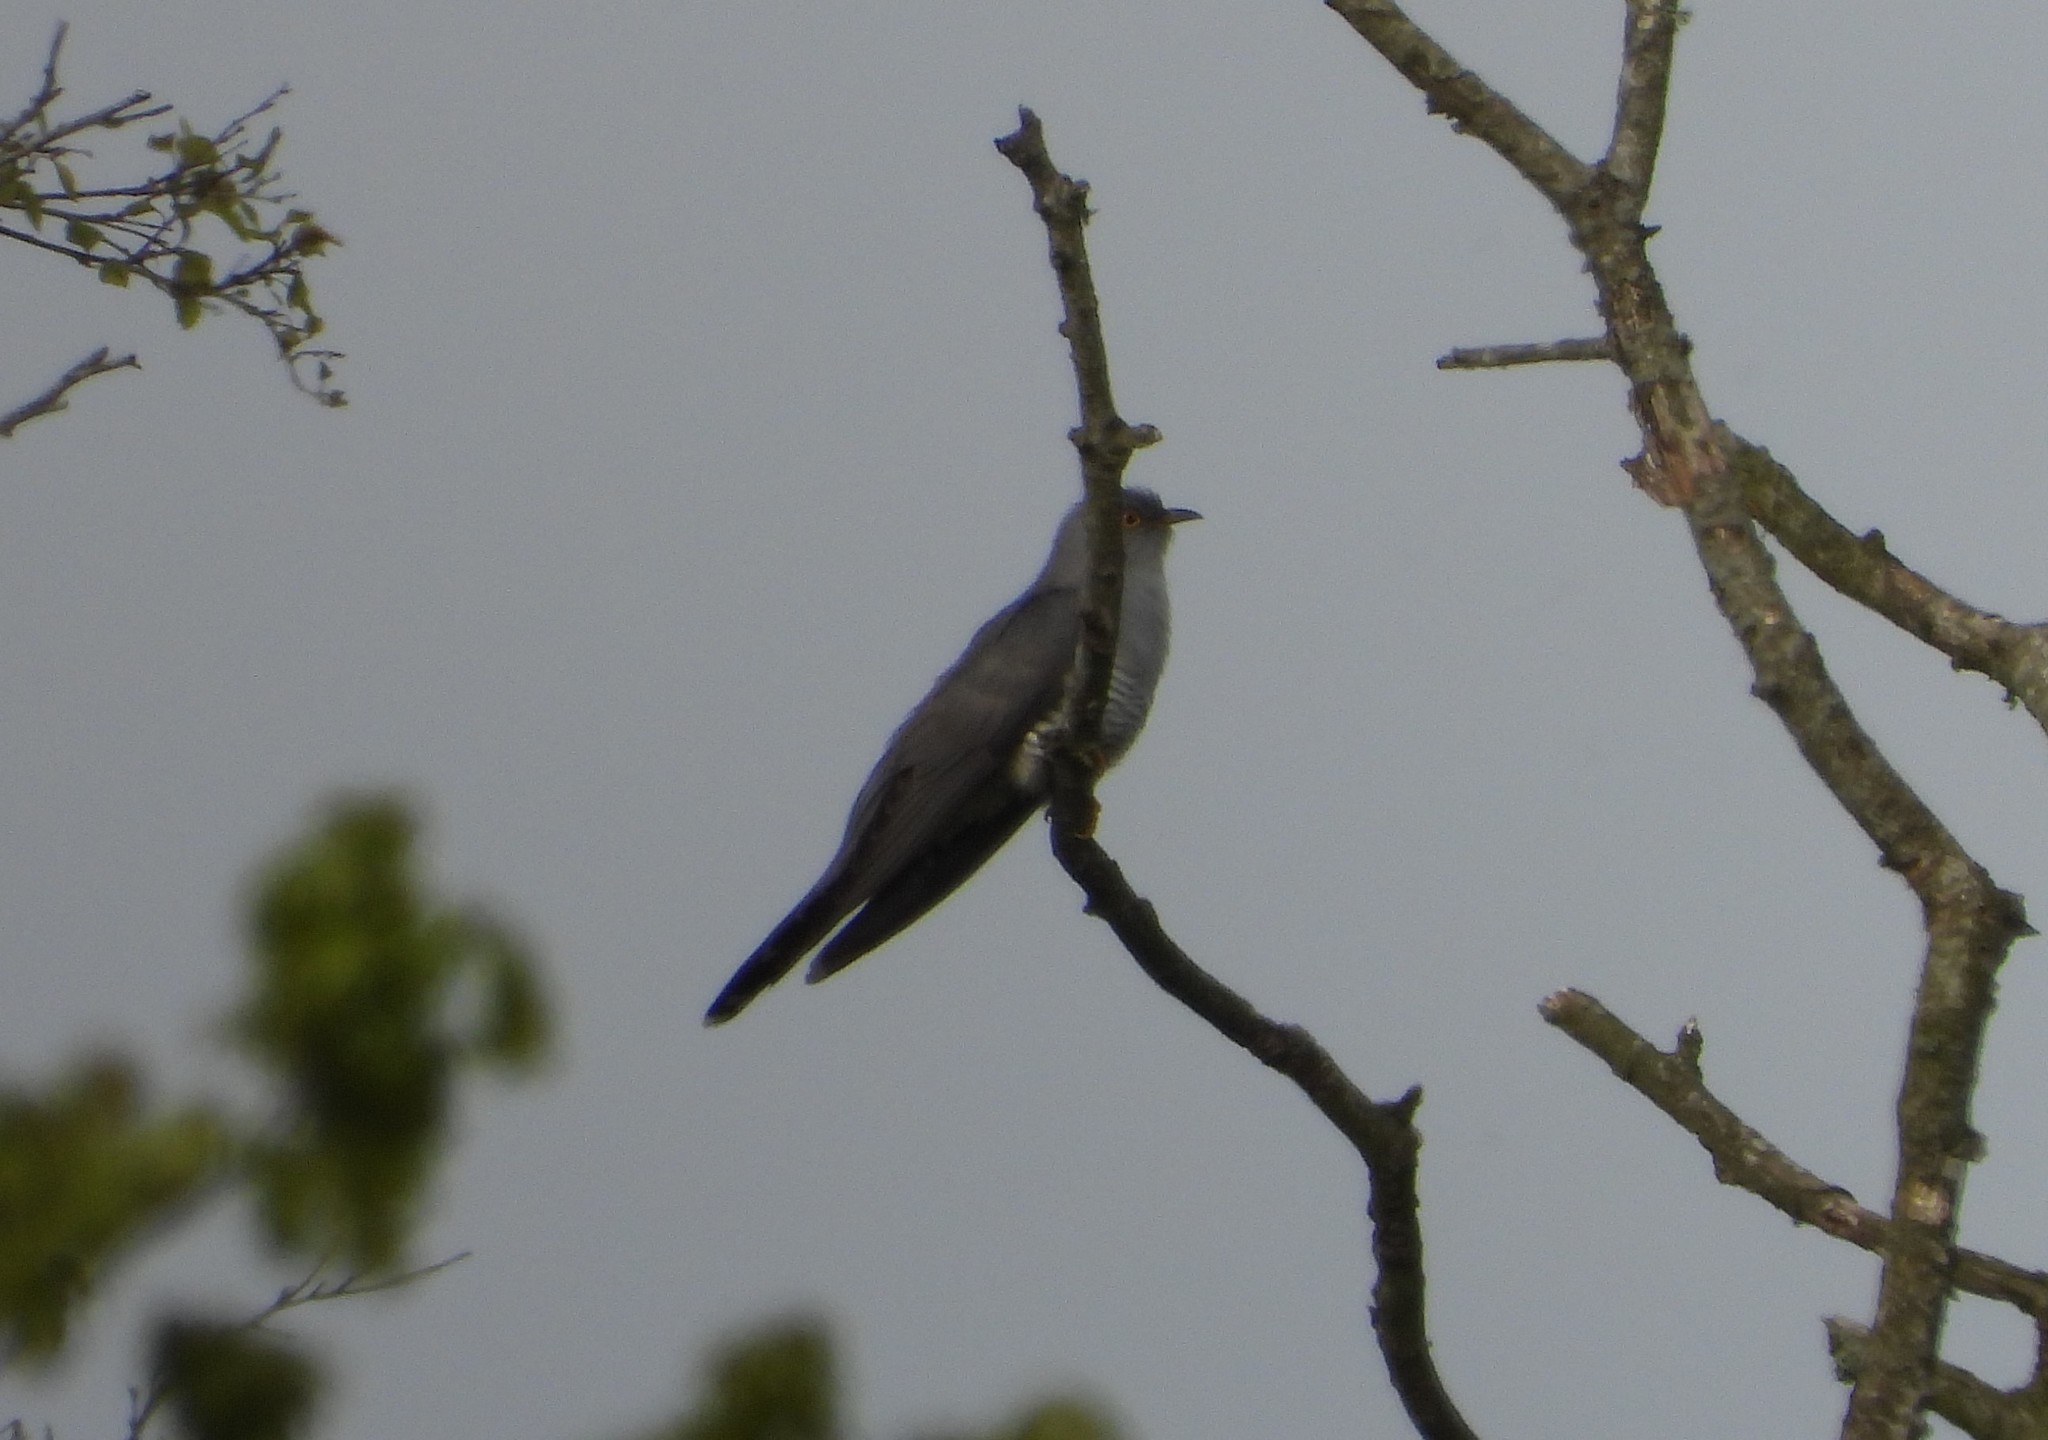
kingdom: Animalia
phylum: Chordata
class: Aves
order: Cuculiformes
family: Cuculidae
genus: Cuculus
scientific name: Cuculus canorus
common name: Common cuckoo
